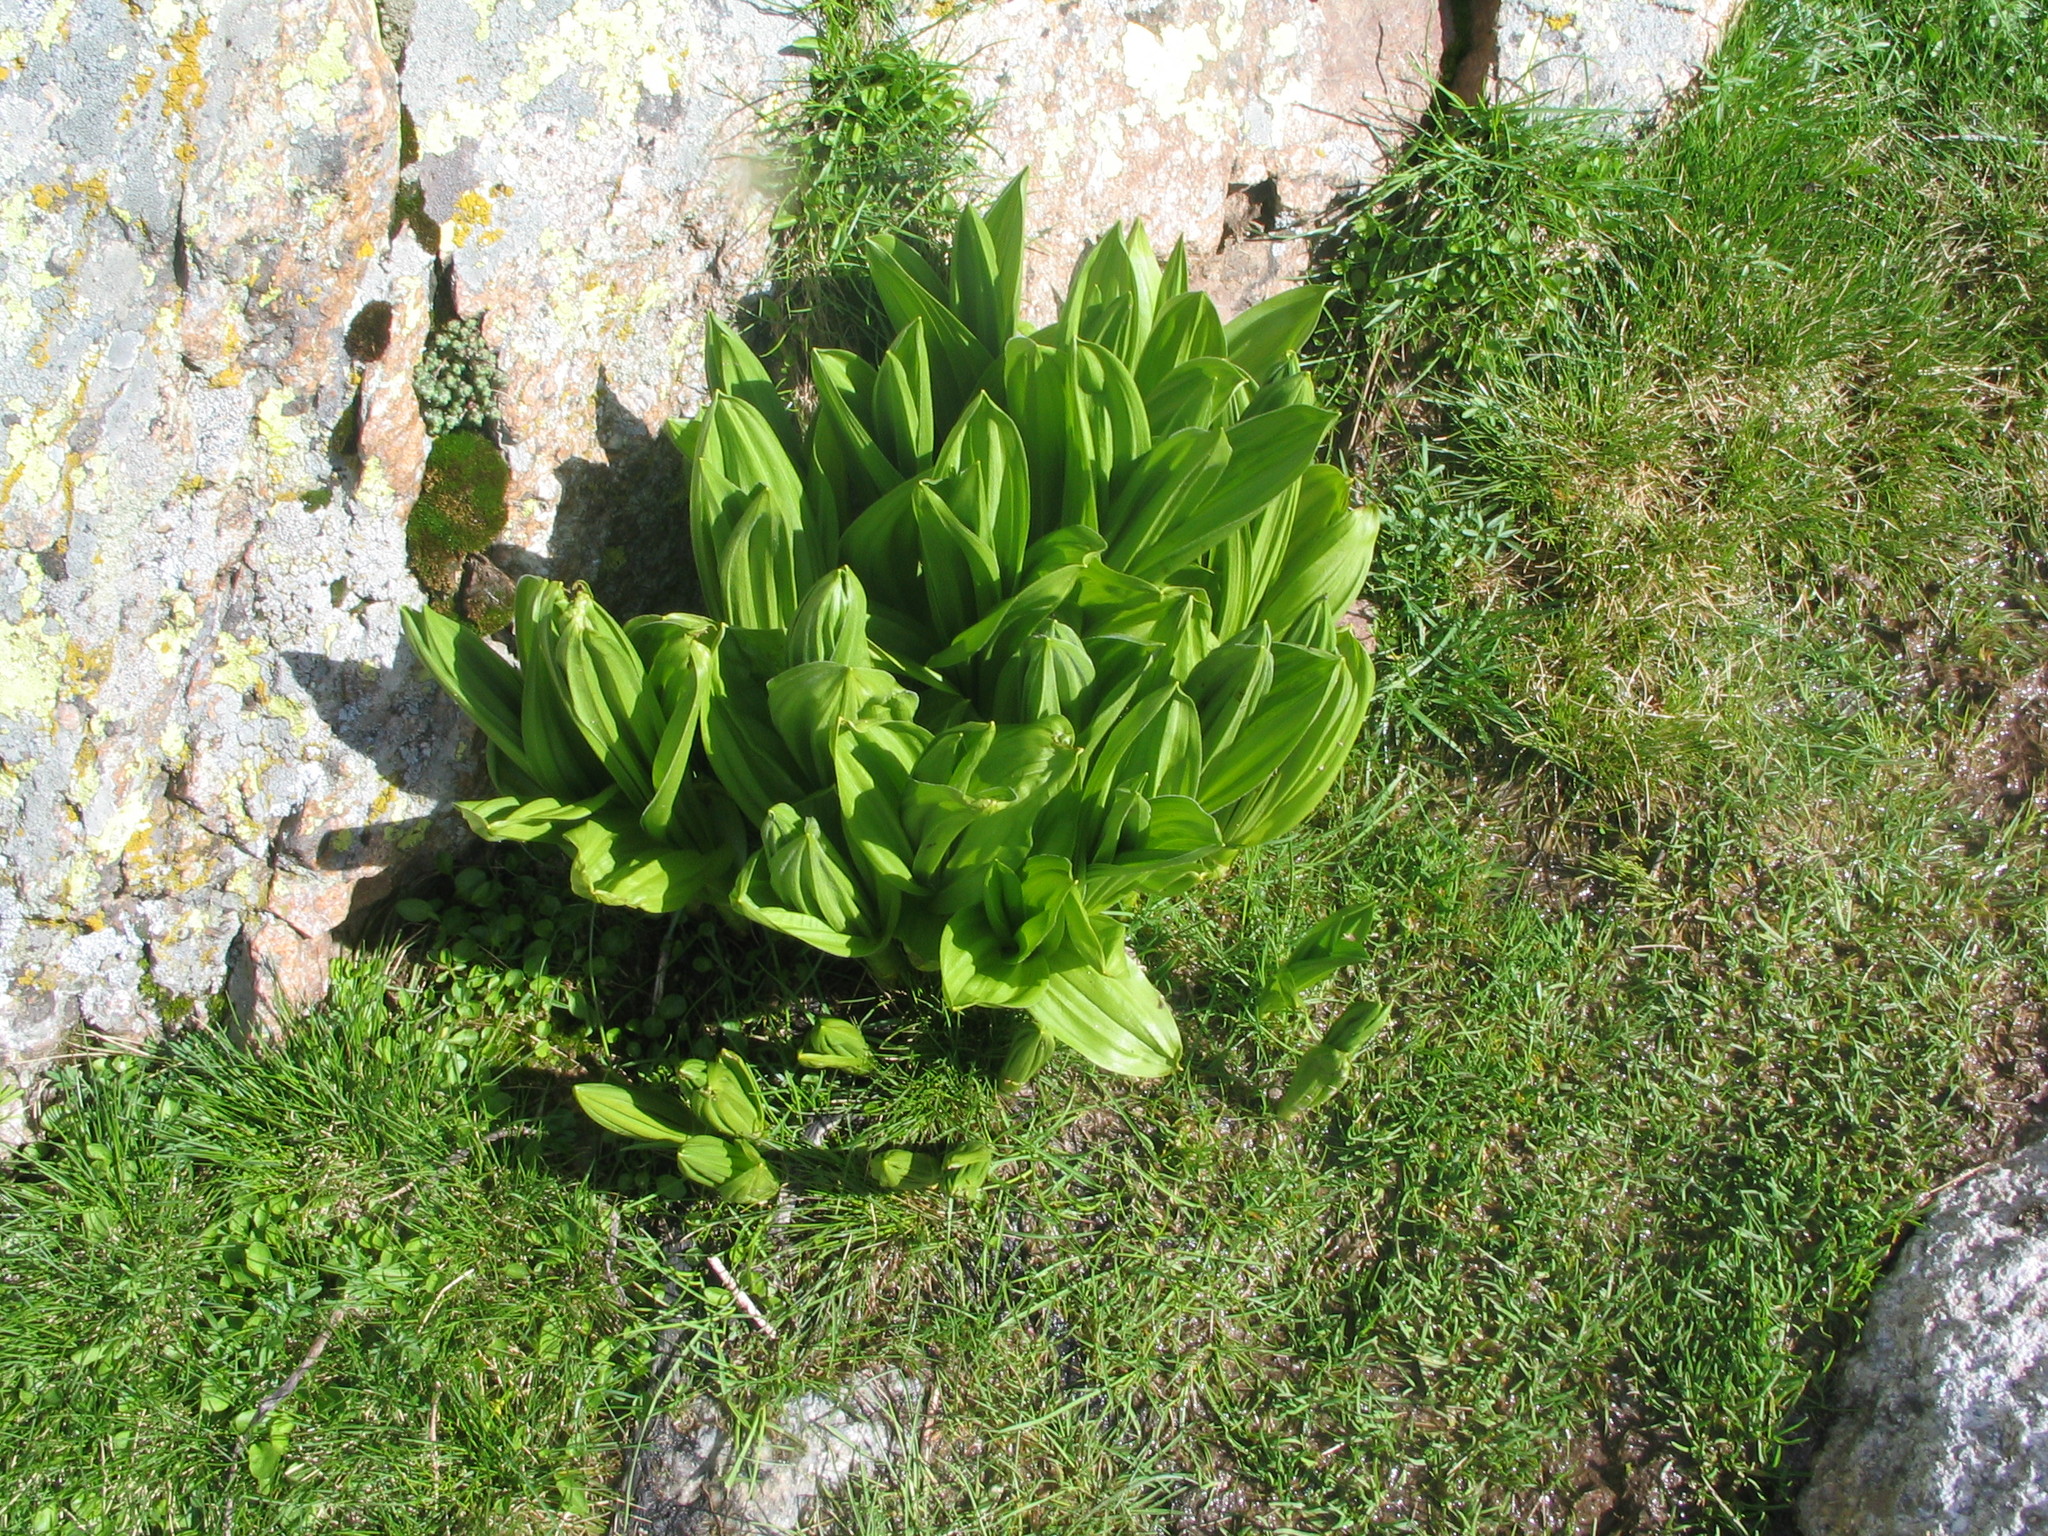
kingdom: Plantae
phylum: Tracheophyta
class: Magnoliopsida
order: Gentianales
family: Gentianaceae
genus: Gentiana
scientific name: Gentiana lutea
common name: Great yellow gentian
